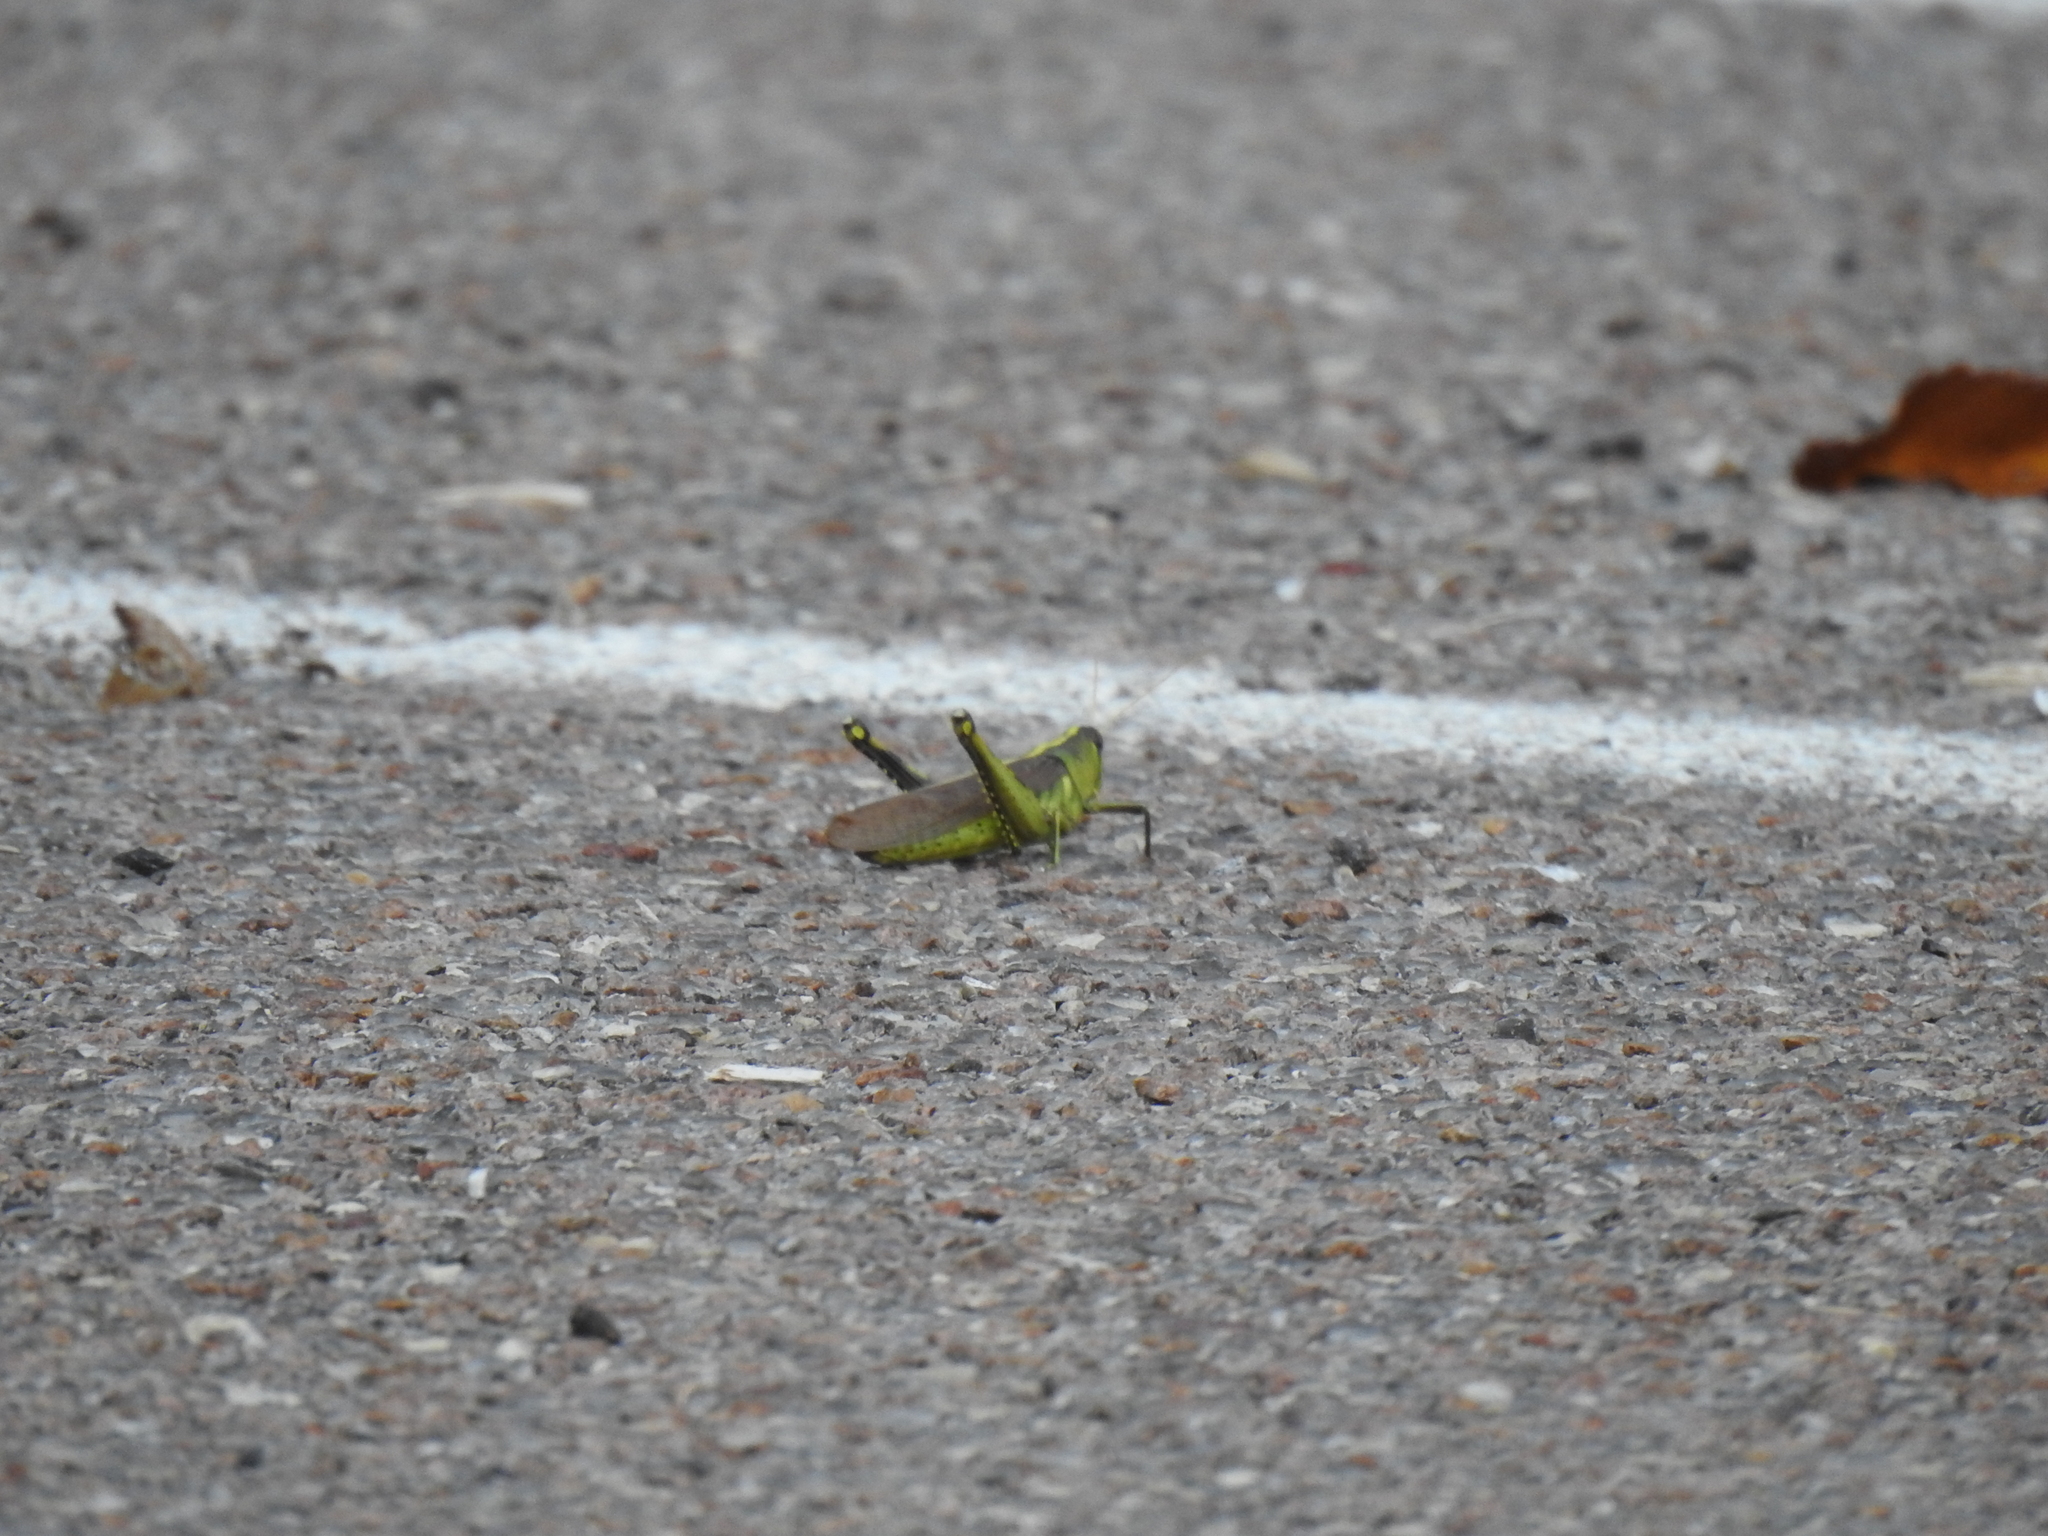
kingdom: Animalia
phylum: Arthropoda
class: Insecta
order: Orthoptera
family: Acrididae
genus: Schistocerca
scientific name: Schistocerca obscura
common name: Obscure bird grasshopper
